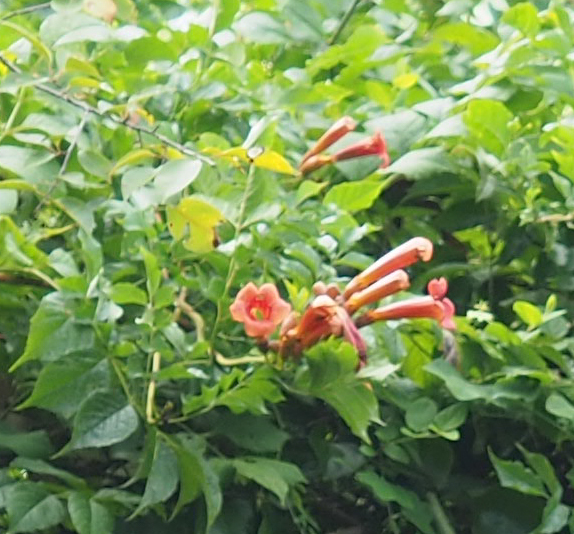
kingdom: Plantae
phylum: Tracheophyta
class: Magnoliopsida
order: Lamiales
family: Bignoniaceae
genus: Campsis
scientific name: Campsis radicans
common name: Trumpet-creeper
